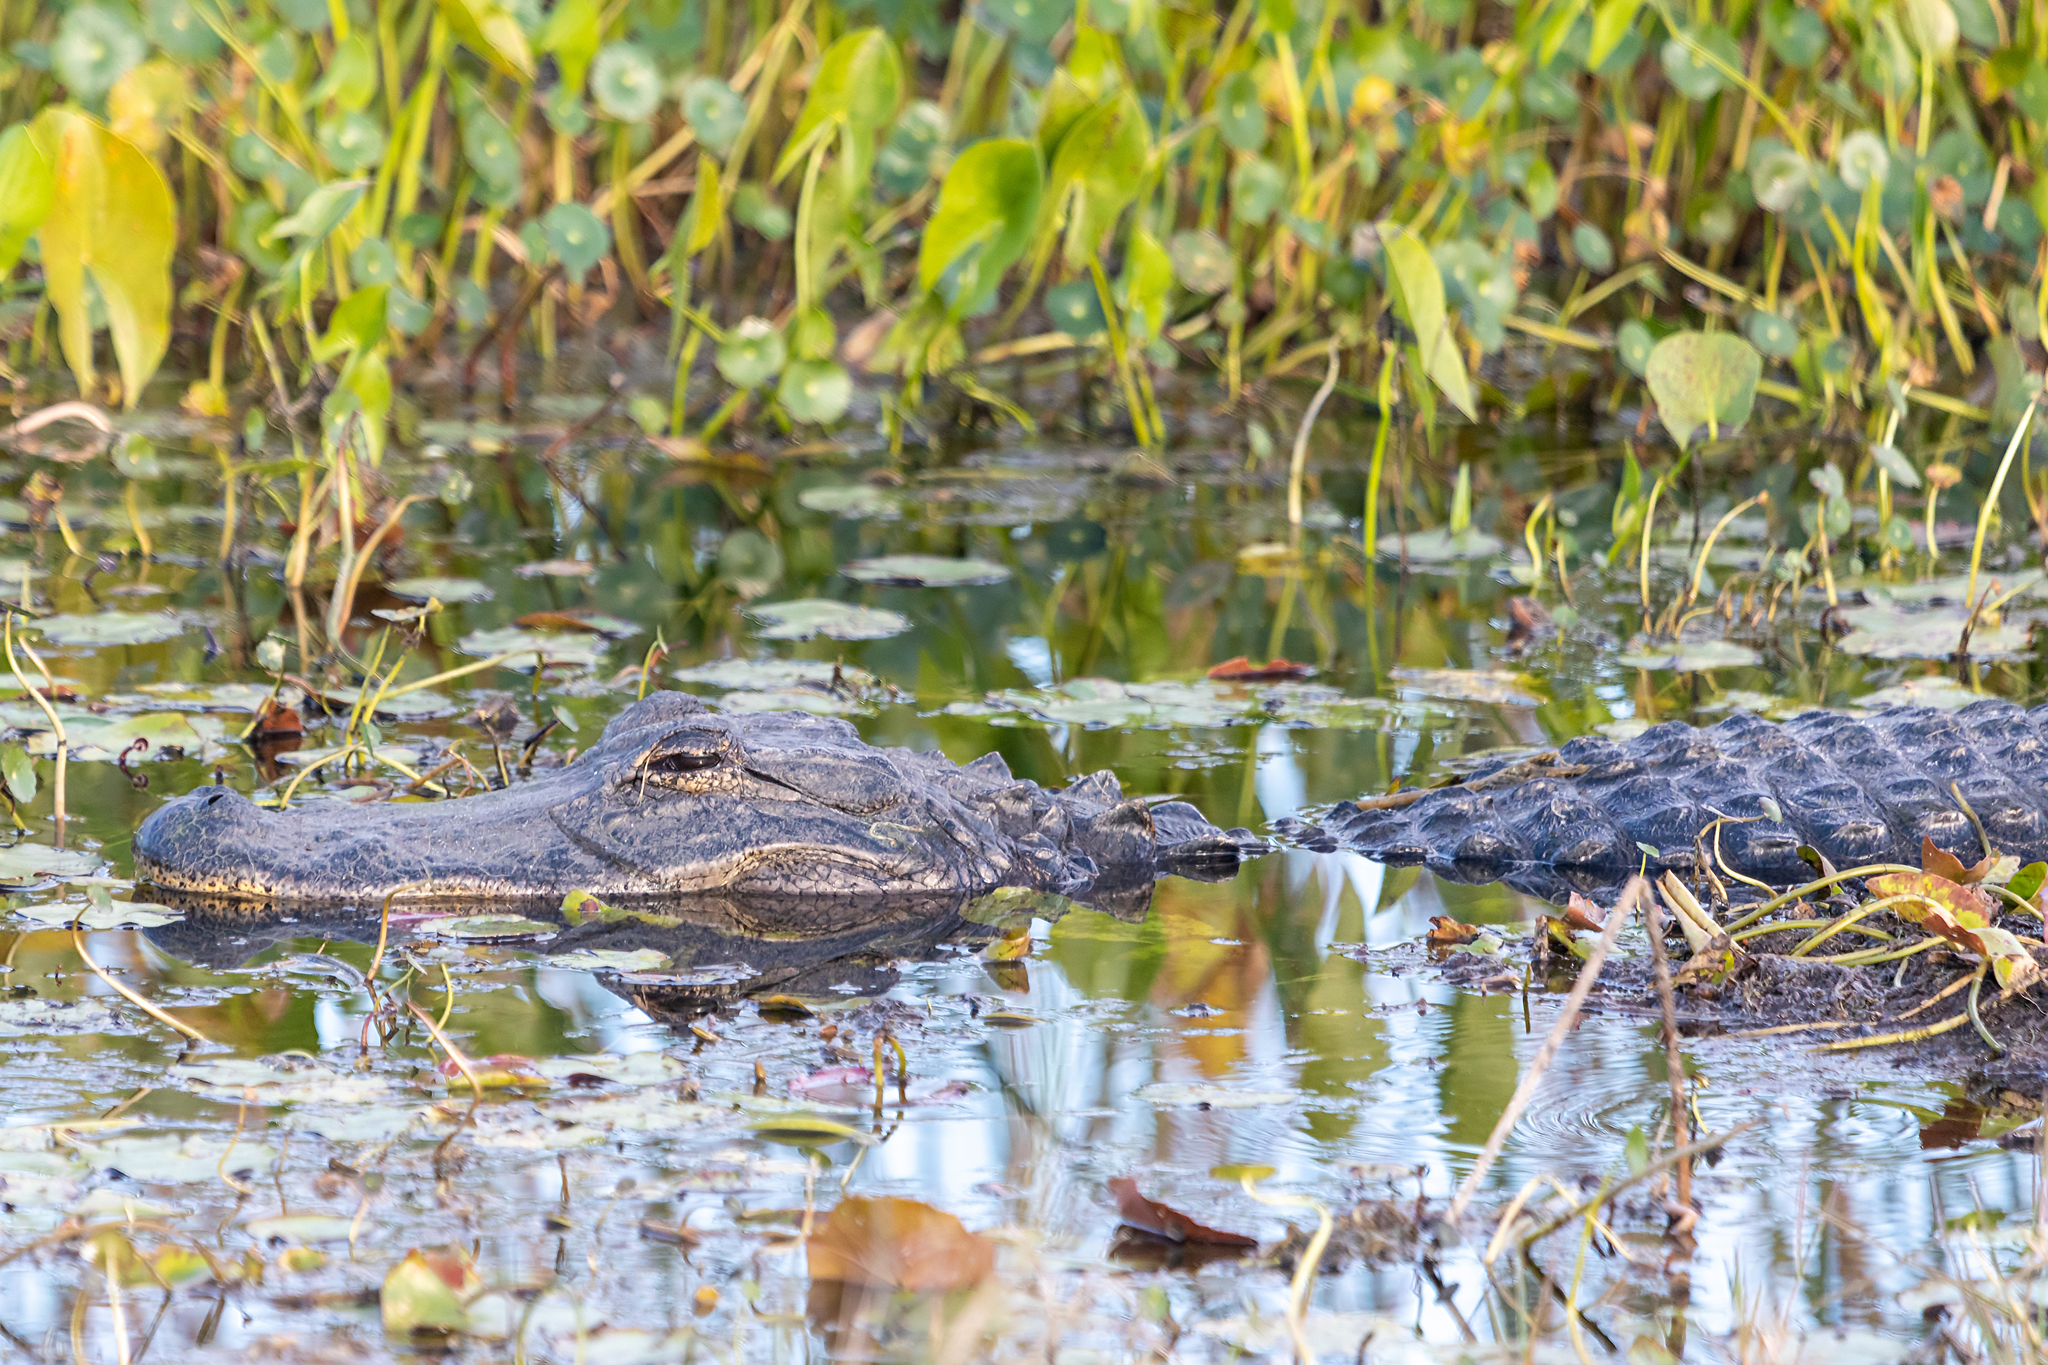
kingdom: Animalia
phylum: Chordata
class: Crocodylia
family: Alligatoridae
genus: Alligator
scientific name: Alligator mississippiensis
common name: American alligator
